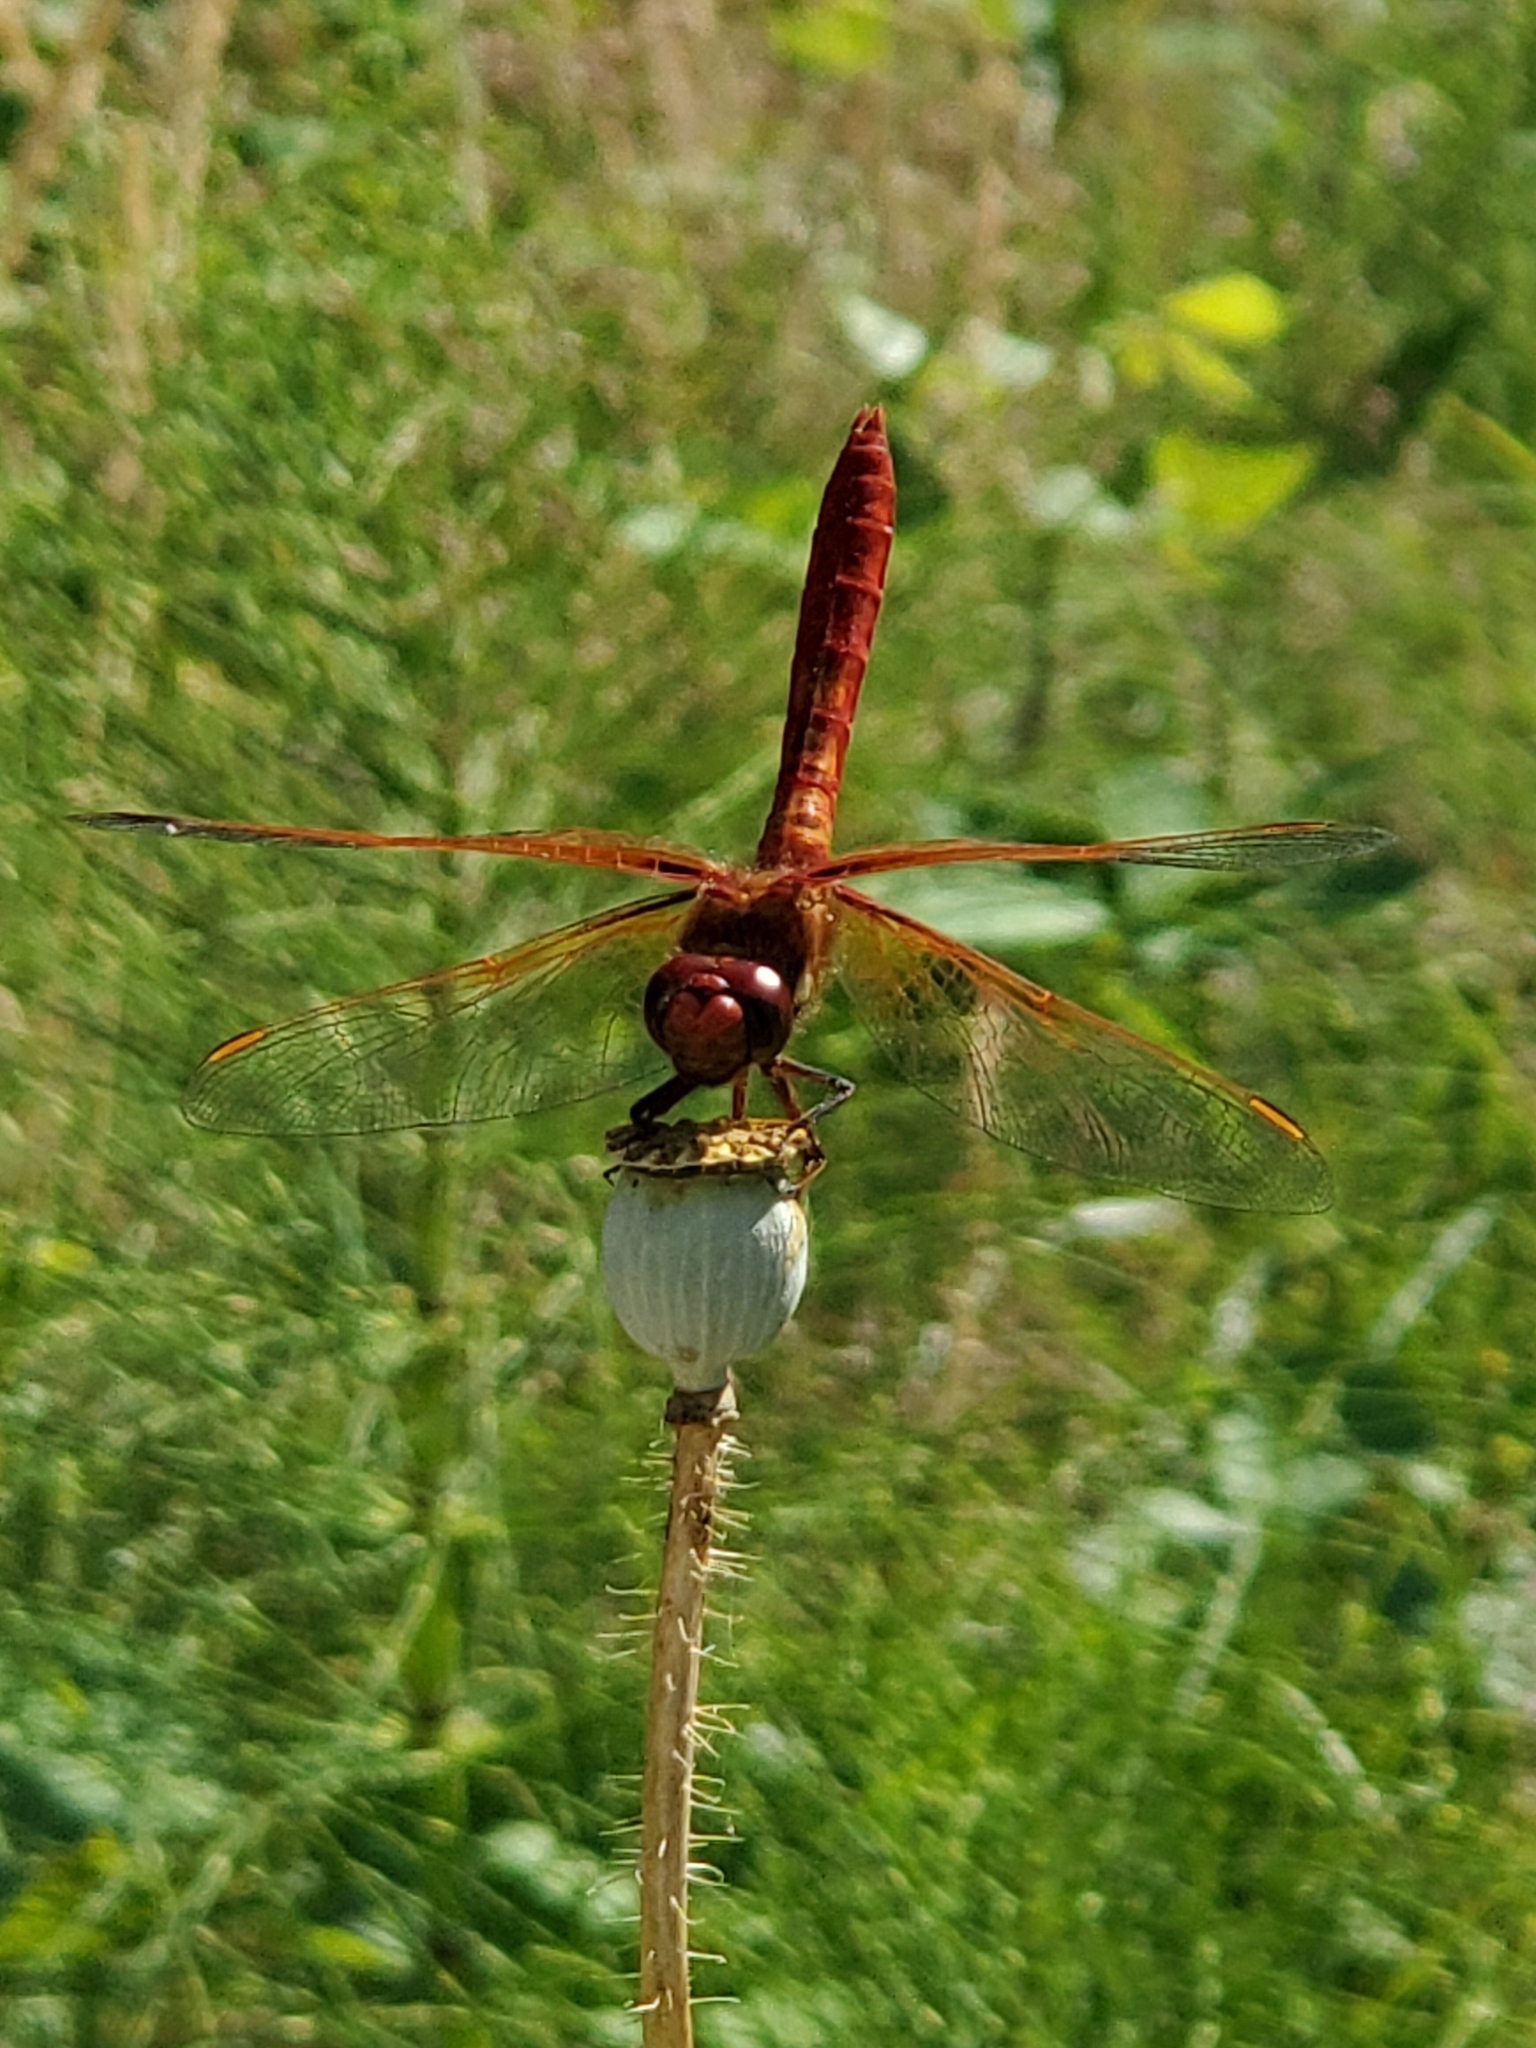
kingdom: Animalia
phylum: Arthropoda
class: Insecta
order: Odonata
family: Libellulidae
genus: Sympetrum
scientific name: Sympetrum illotum
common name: Cardinal meadowhawk
